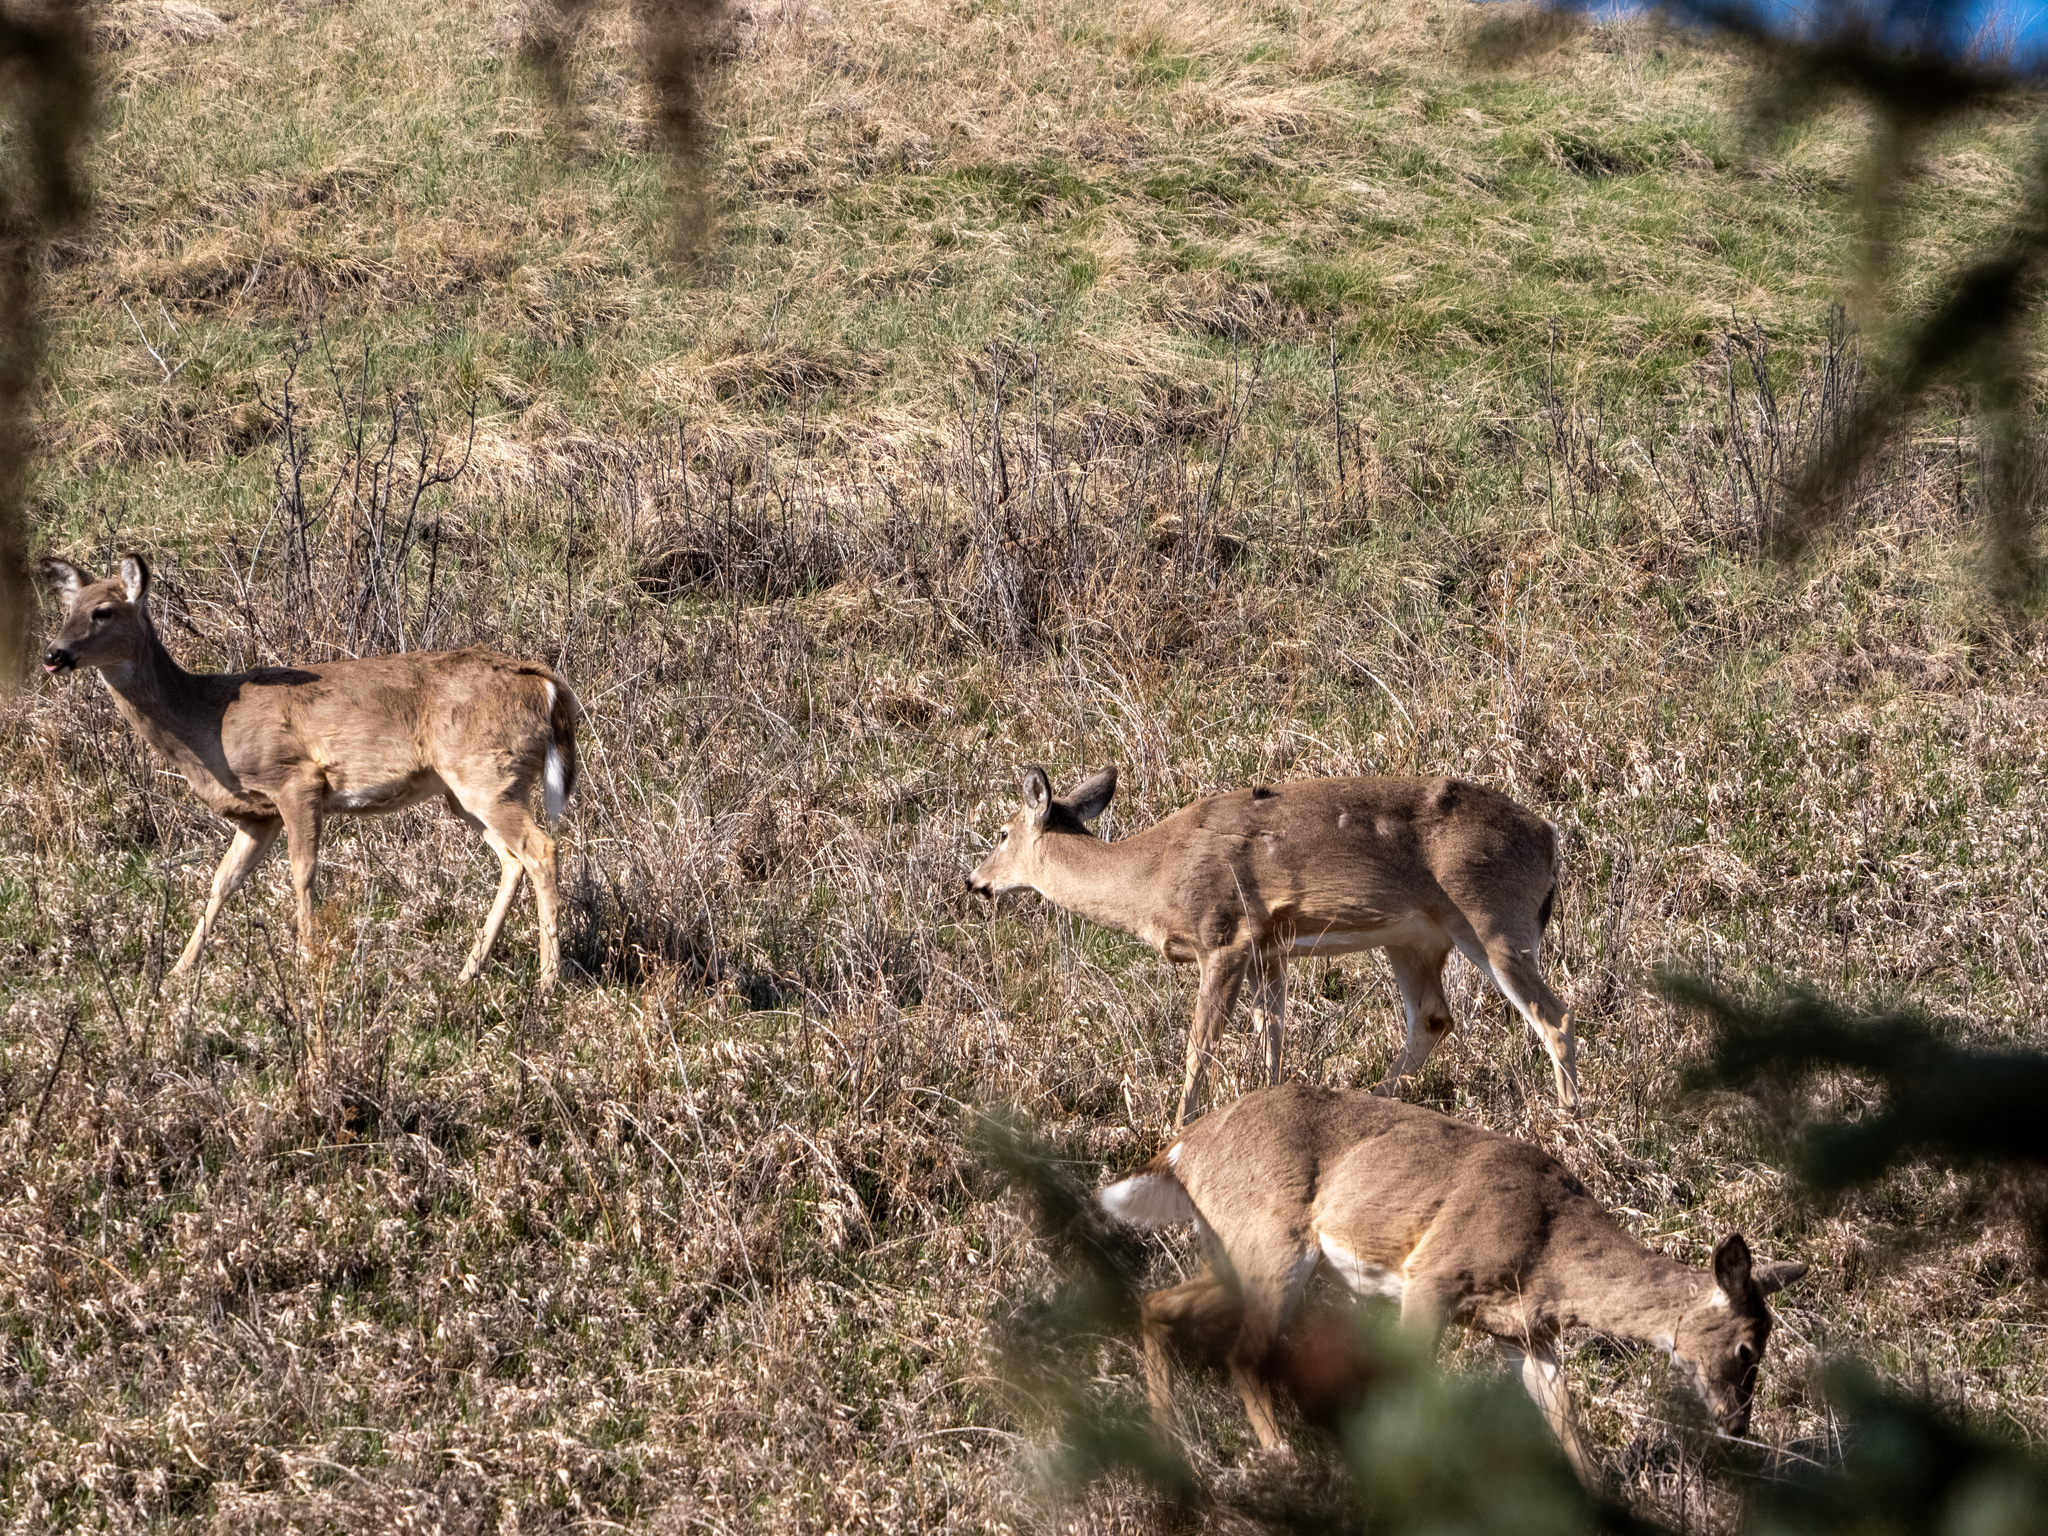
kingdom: Animalia
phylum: Chordata
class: Mammalia
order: Artiodactyla
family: Cervidae
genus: Odocoileus
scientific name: Odocoileus virginianus
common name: White-tailed deer
